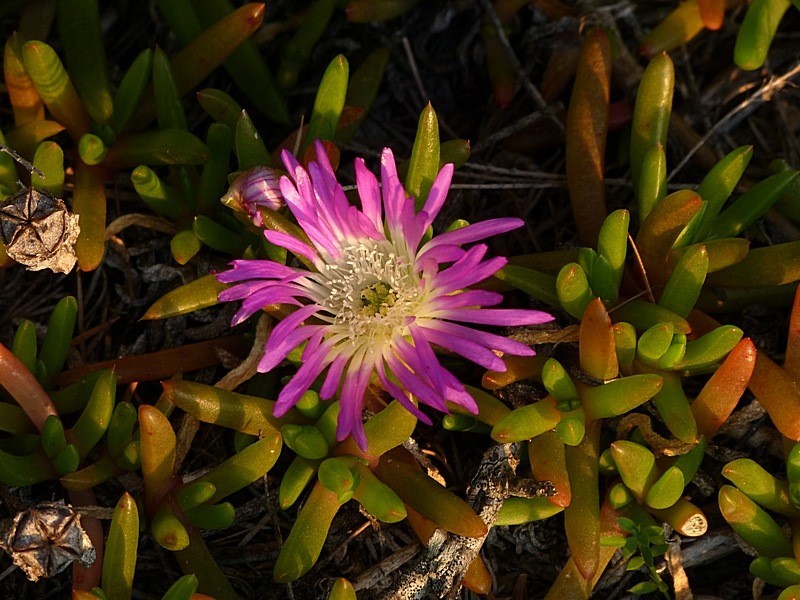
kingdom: Plantae
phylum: Tracheophyta
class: Magnoliopsida
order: Caryophyllales
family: Aizoaceae
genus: Disphyma
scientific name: Disphyma clavellatum
